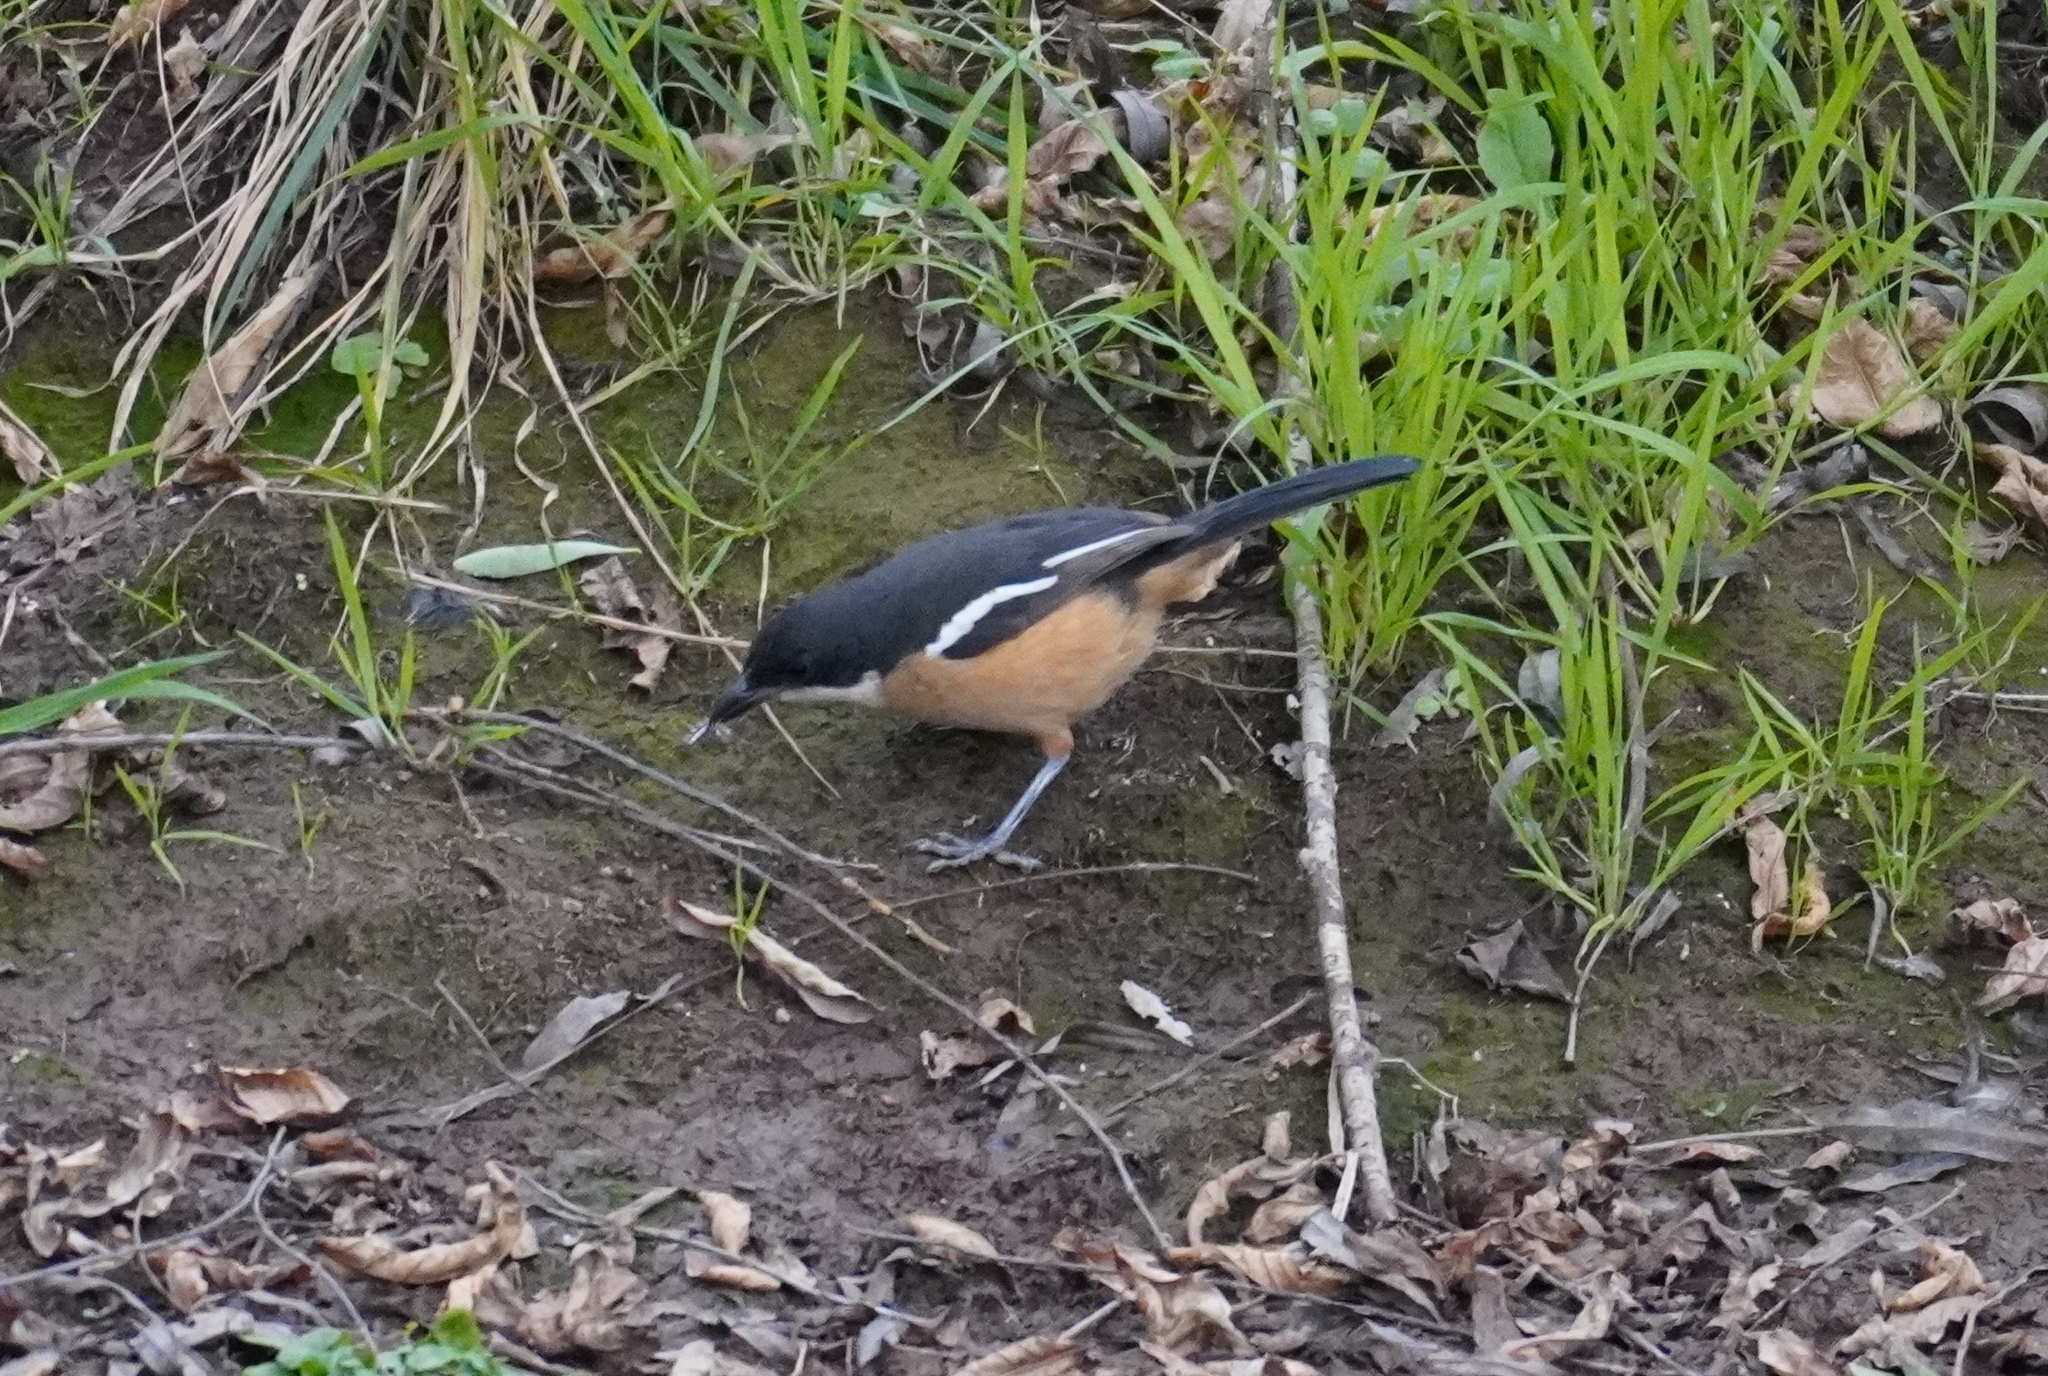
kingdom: Animalia
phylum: Chordata
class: Aves
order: Passeriformes
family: Malaconotidae
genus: Laniarius
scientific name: Laniarius ferrugineus
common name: Southern boubou
